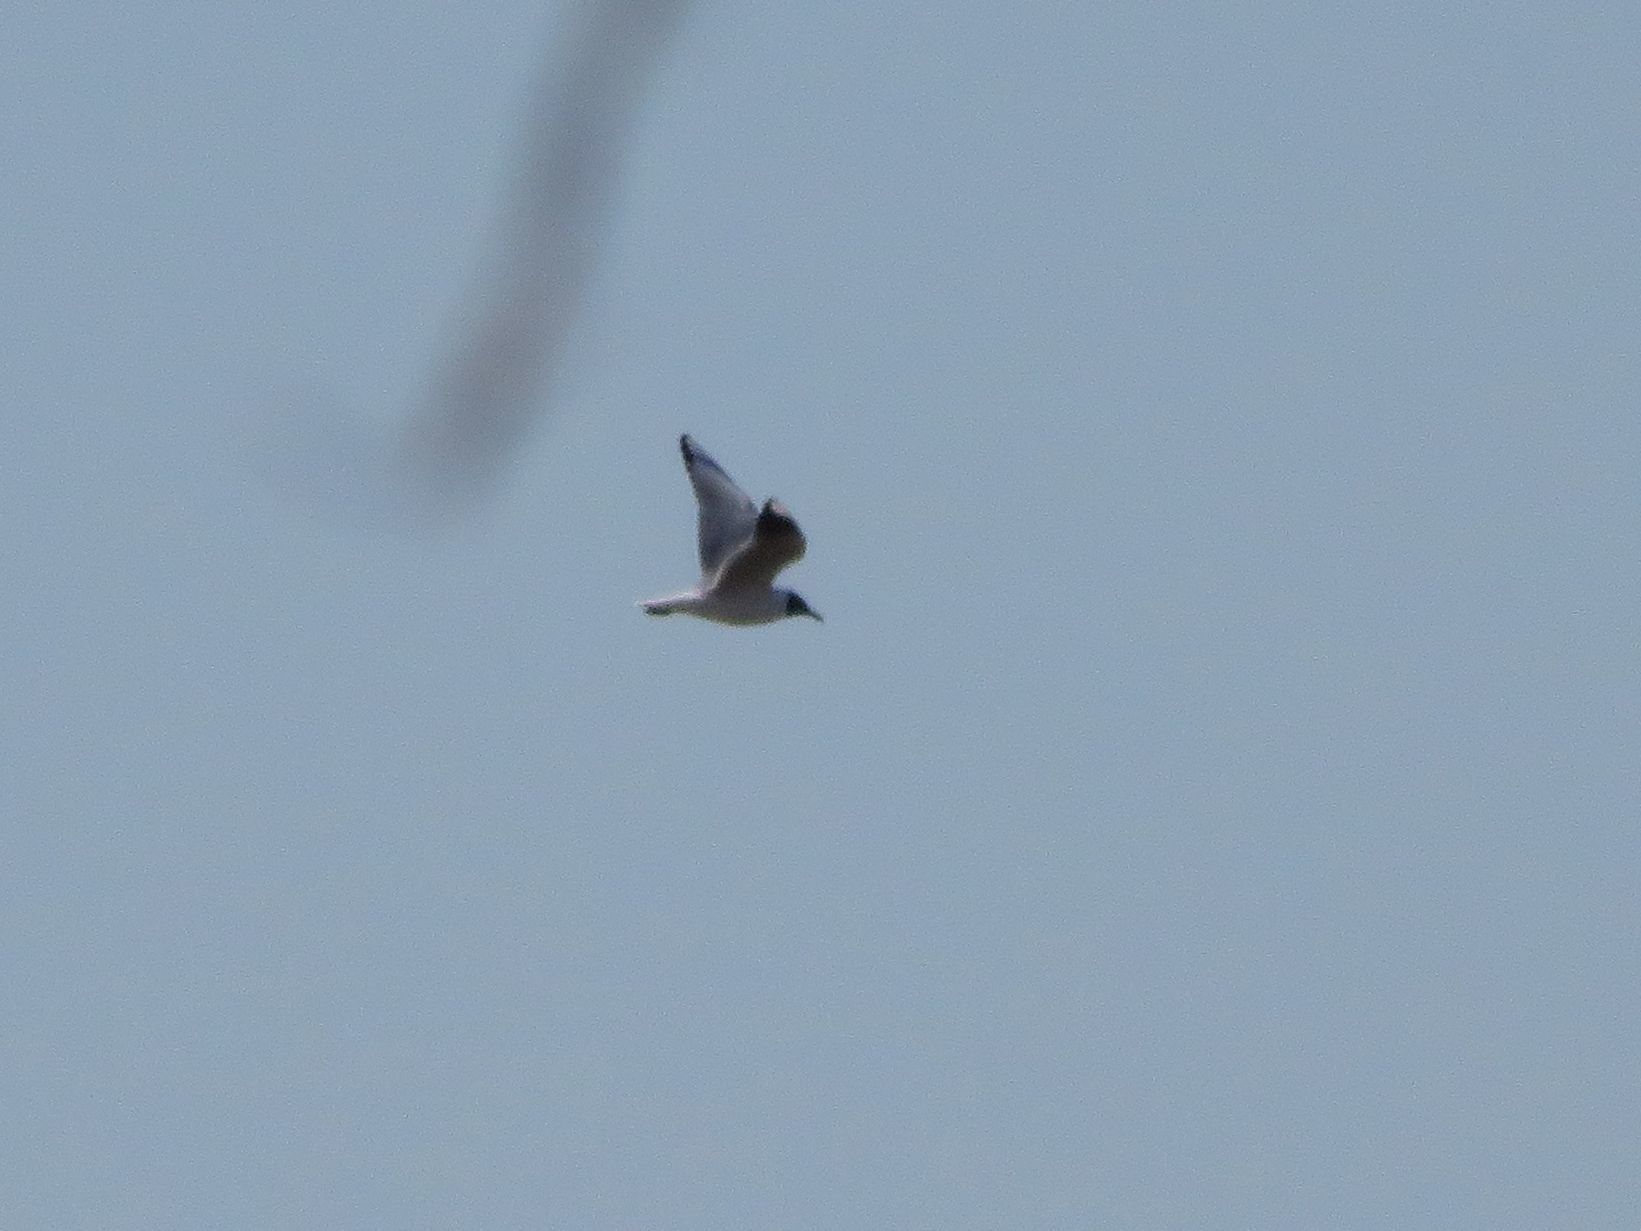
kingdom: Animalia
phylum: Chordata
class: Aves
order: Charadriiformes
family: Laridae
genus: Chroicocephalus
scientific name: Chroicocephalus maculipennis
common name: Brown-hooded gull
